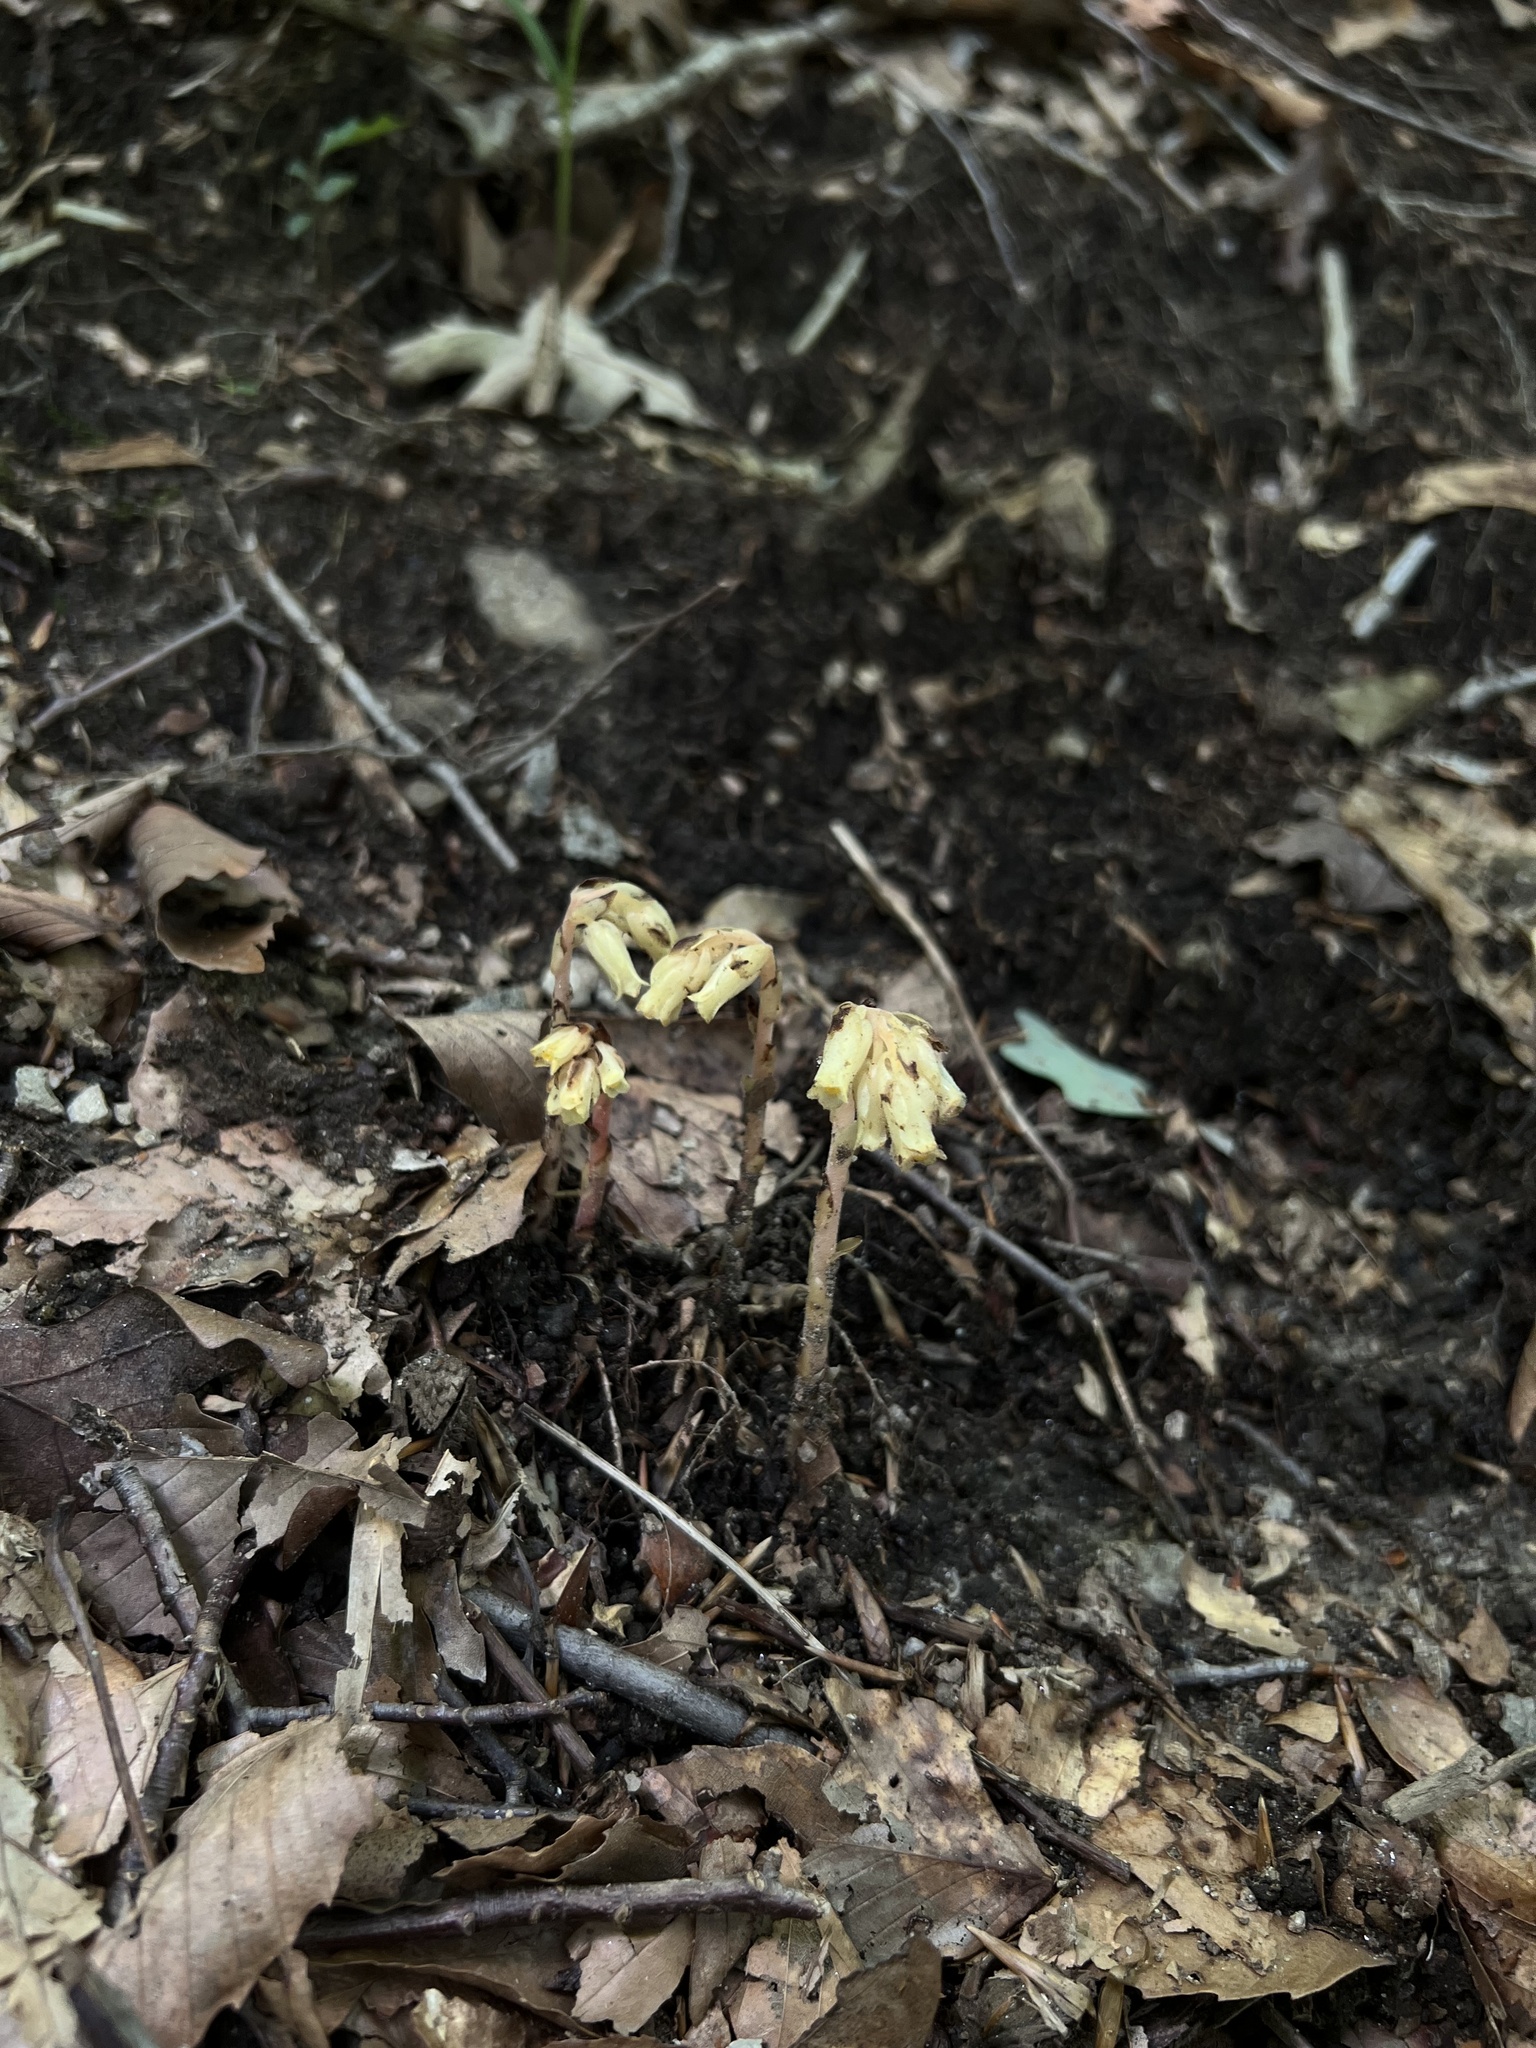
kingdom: Plantae
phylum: Tracheophyta
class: Magnoliopsida
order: Ericales
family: Ericaceae
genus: Hypopitys
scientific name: Hypopitys monotropa
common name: Yellow bird's-nest
